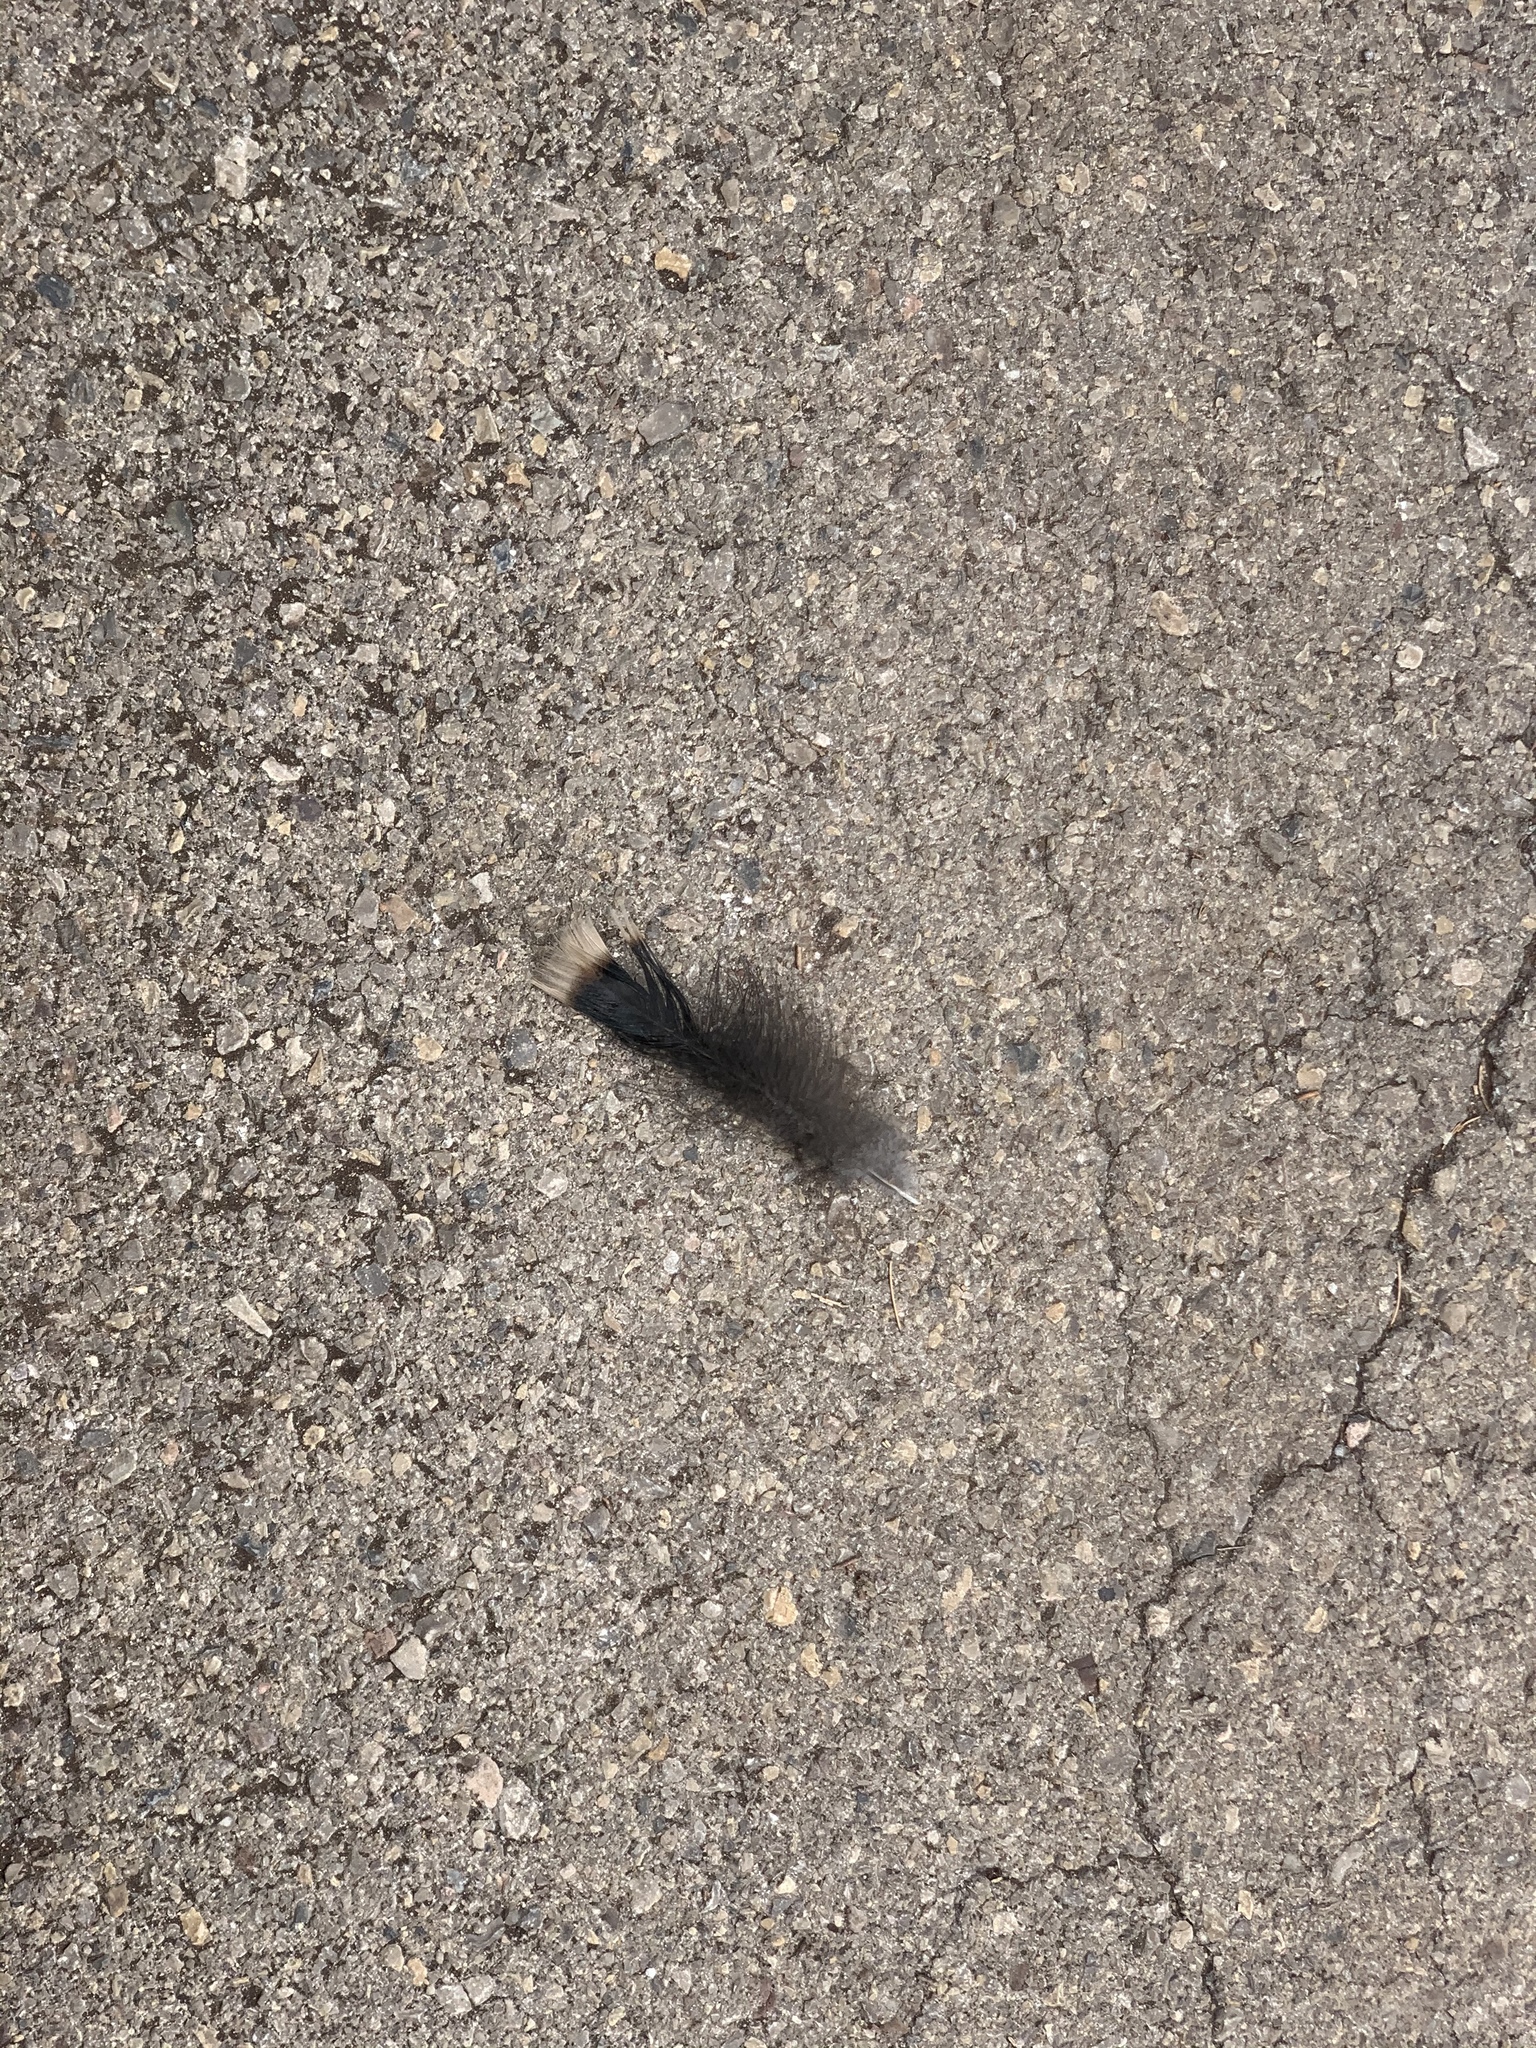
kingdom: Animalia
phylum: Chordata
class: Aves
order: Galliformes
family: Phasianidae
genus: Meleagris
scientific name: Meleagris gallopavo
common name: Wild turkey
